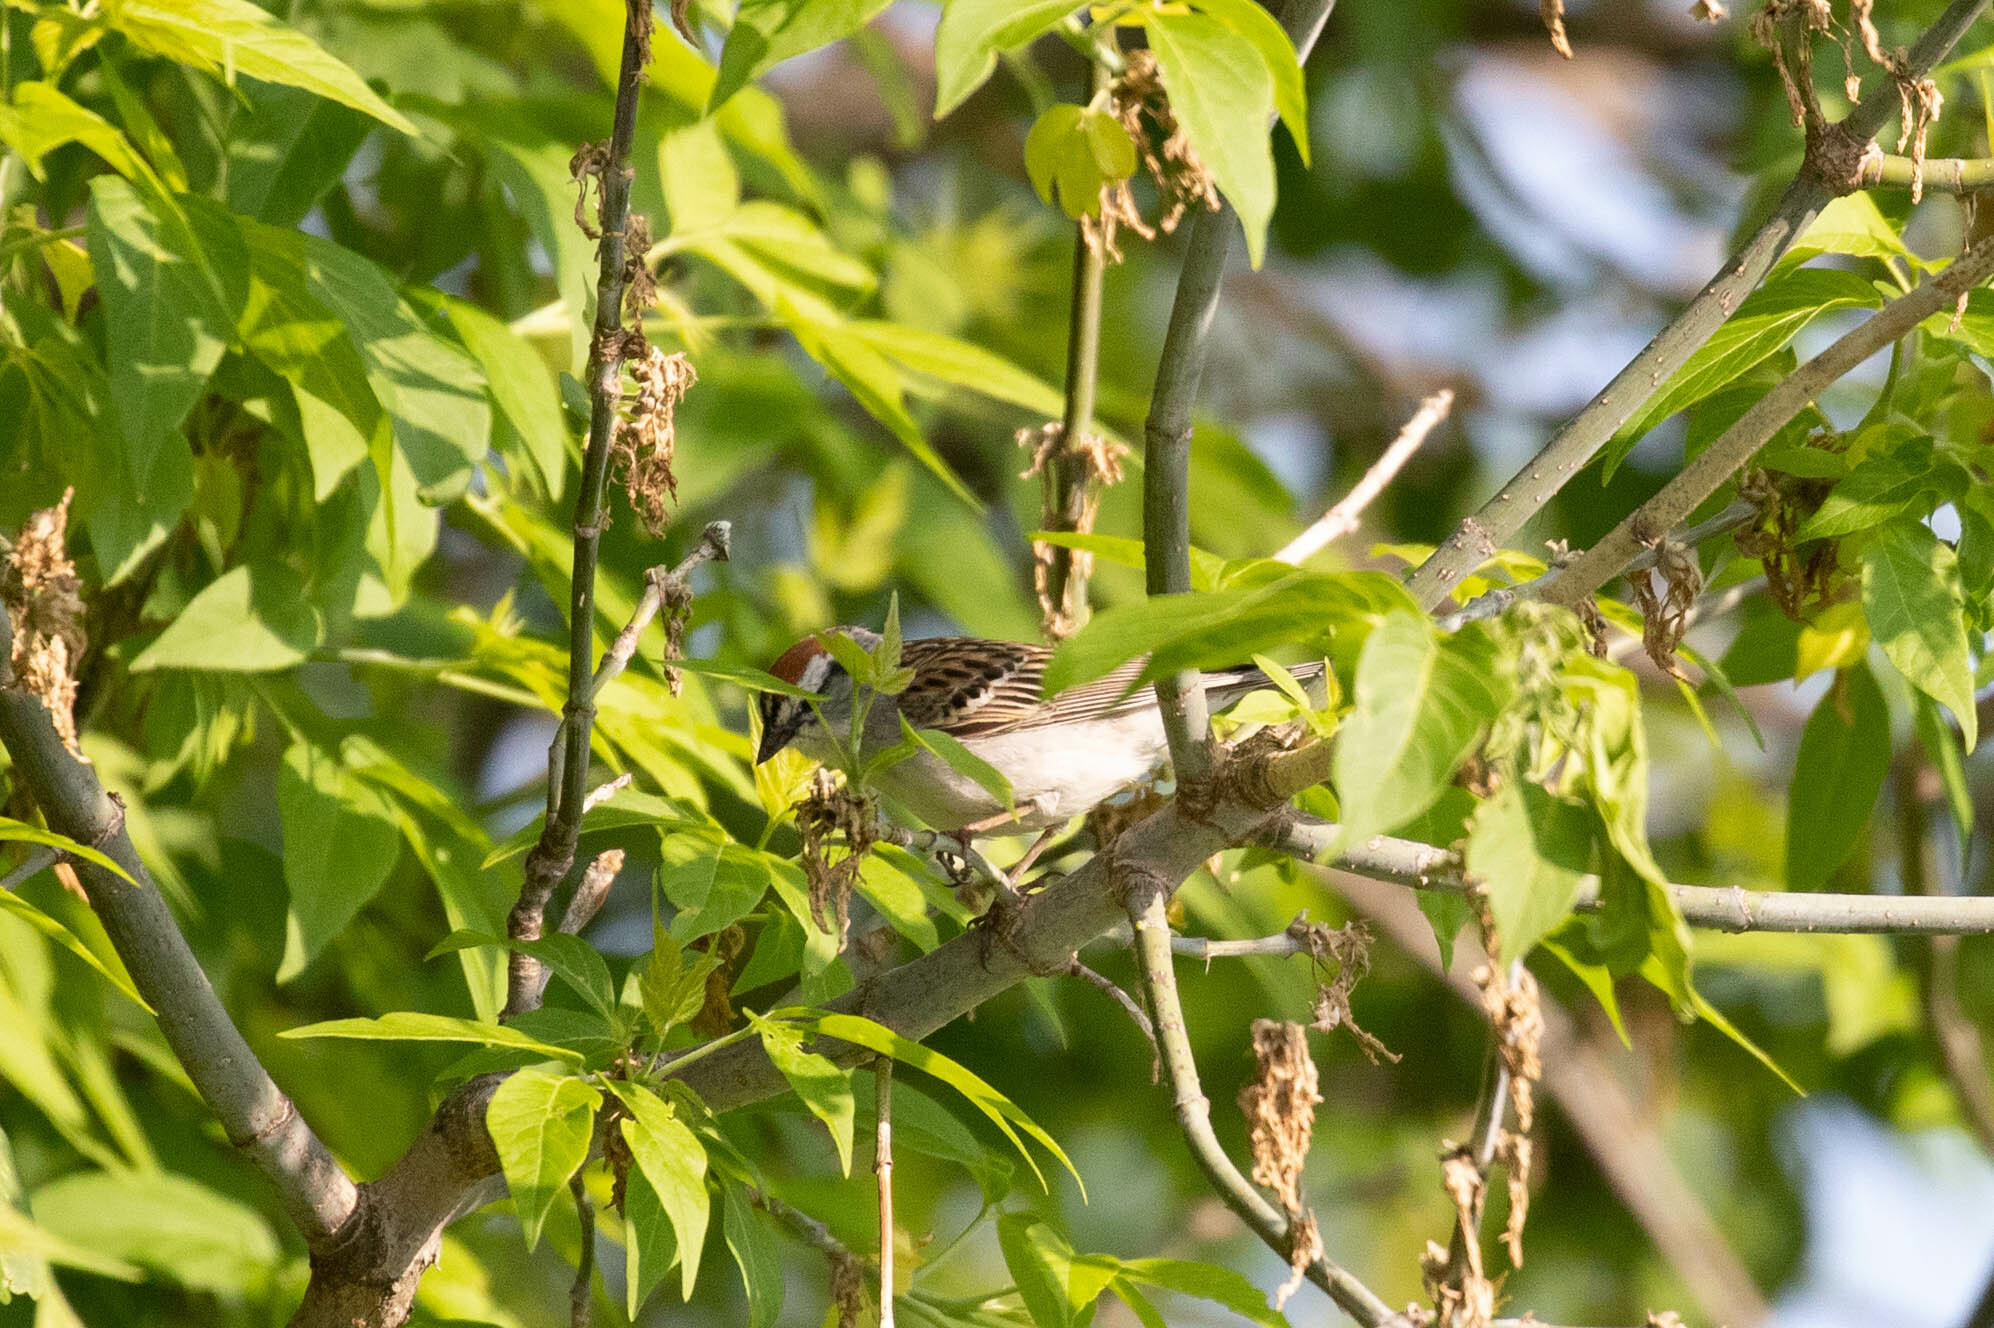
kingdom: Animalia
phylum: Chordata
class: Aves
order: Passeriformes
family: Passerellidae
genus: Spizella
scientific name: Spizella passerina
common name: Chipping sparrow
